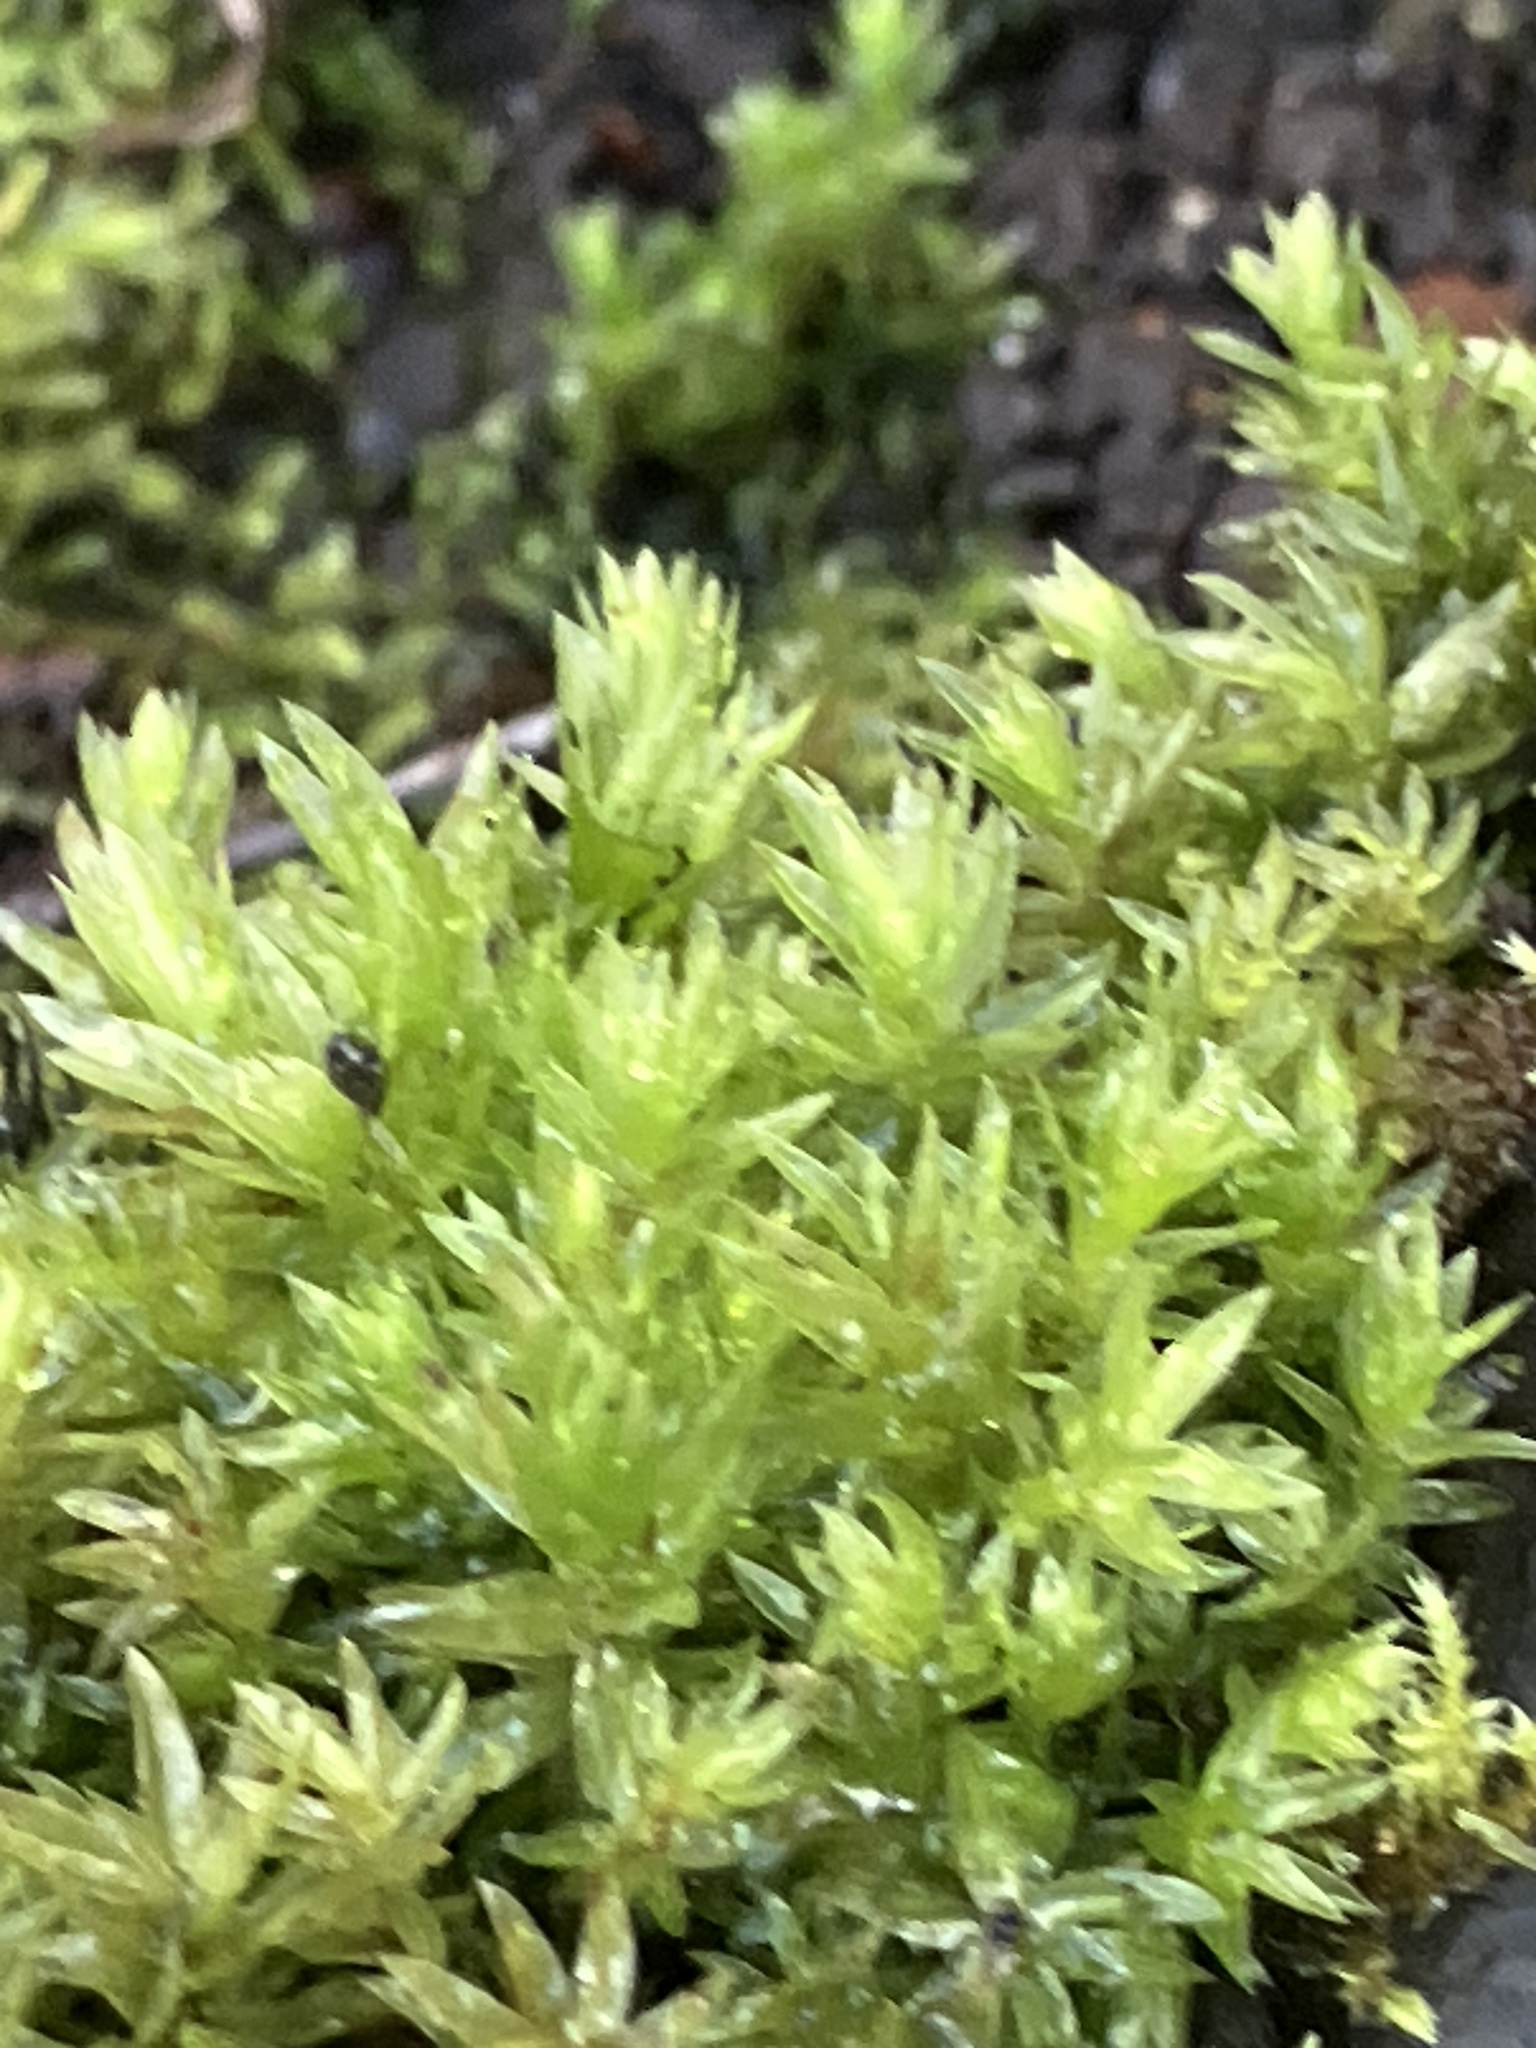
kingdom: Plantae
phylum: Bryophyta
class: Bryopsida
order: Bryales
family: Mniaceae
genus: Mnium
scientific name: Mnium hornum
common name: Swan's-neck leafy moss
